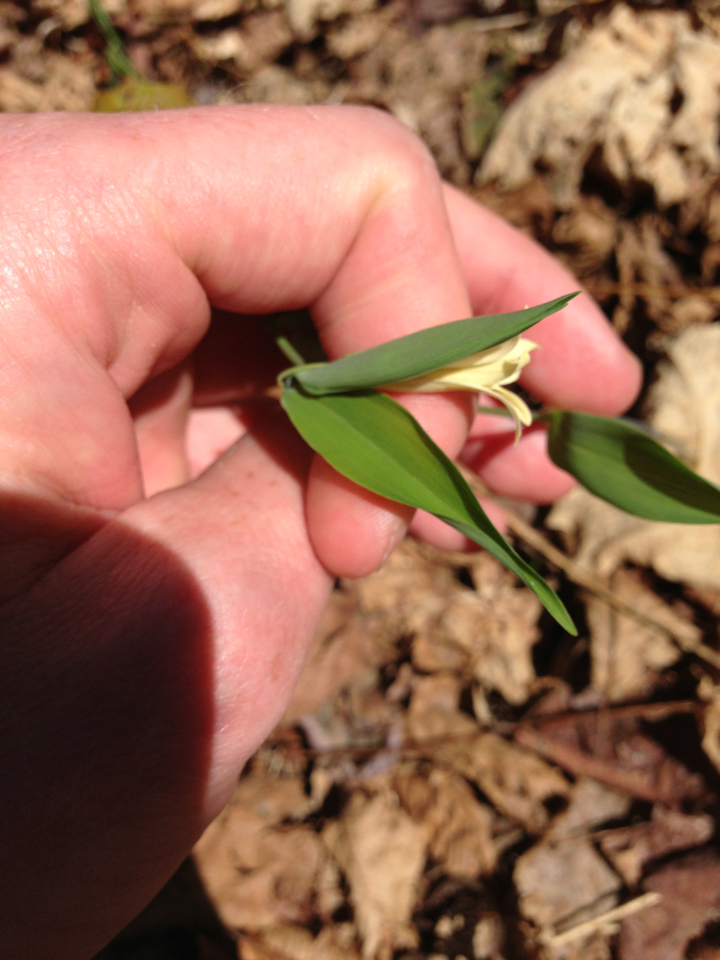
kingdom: Plantae
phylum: Tracheophyta
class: Liliopsida
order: Liliales
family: Colchicaceae
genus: Uvularia
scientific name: Uvularia sessilifolia
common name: Straw-lily
